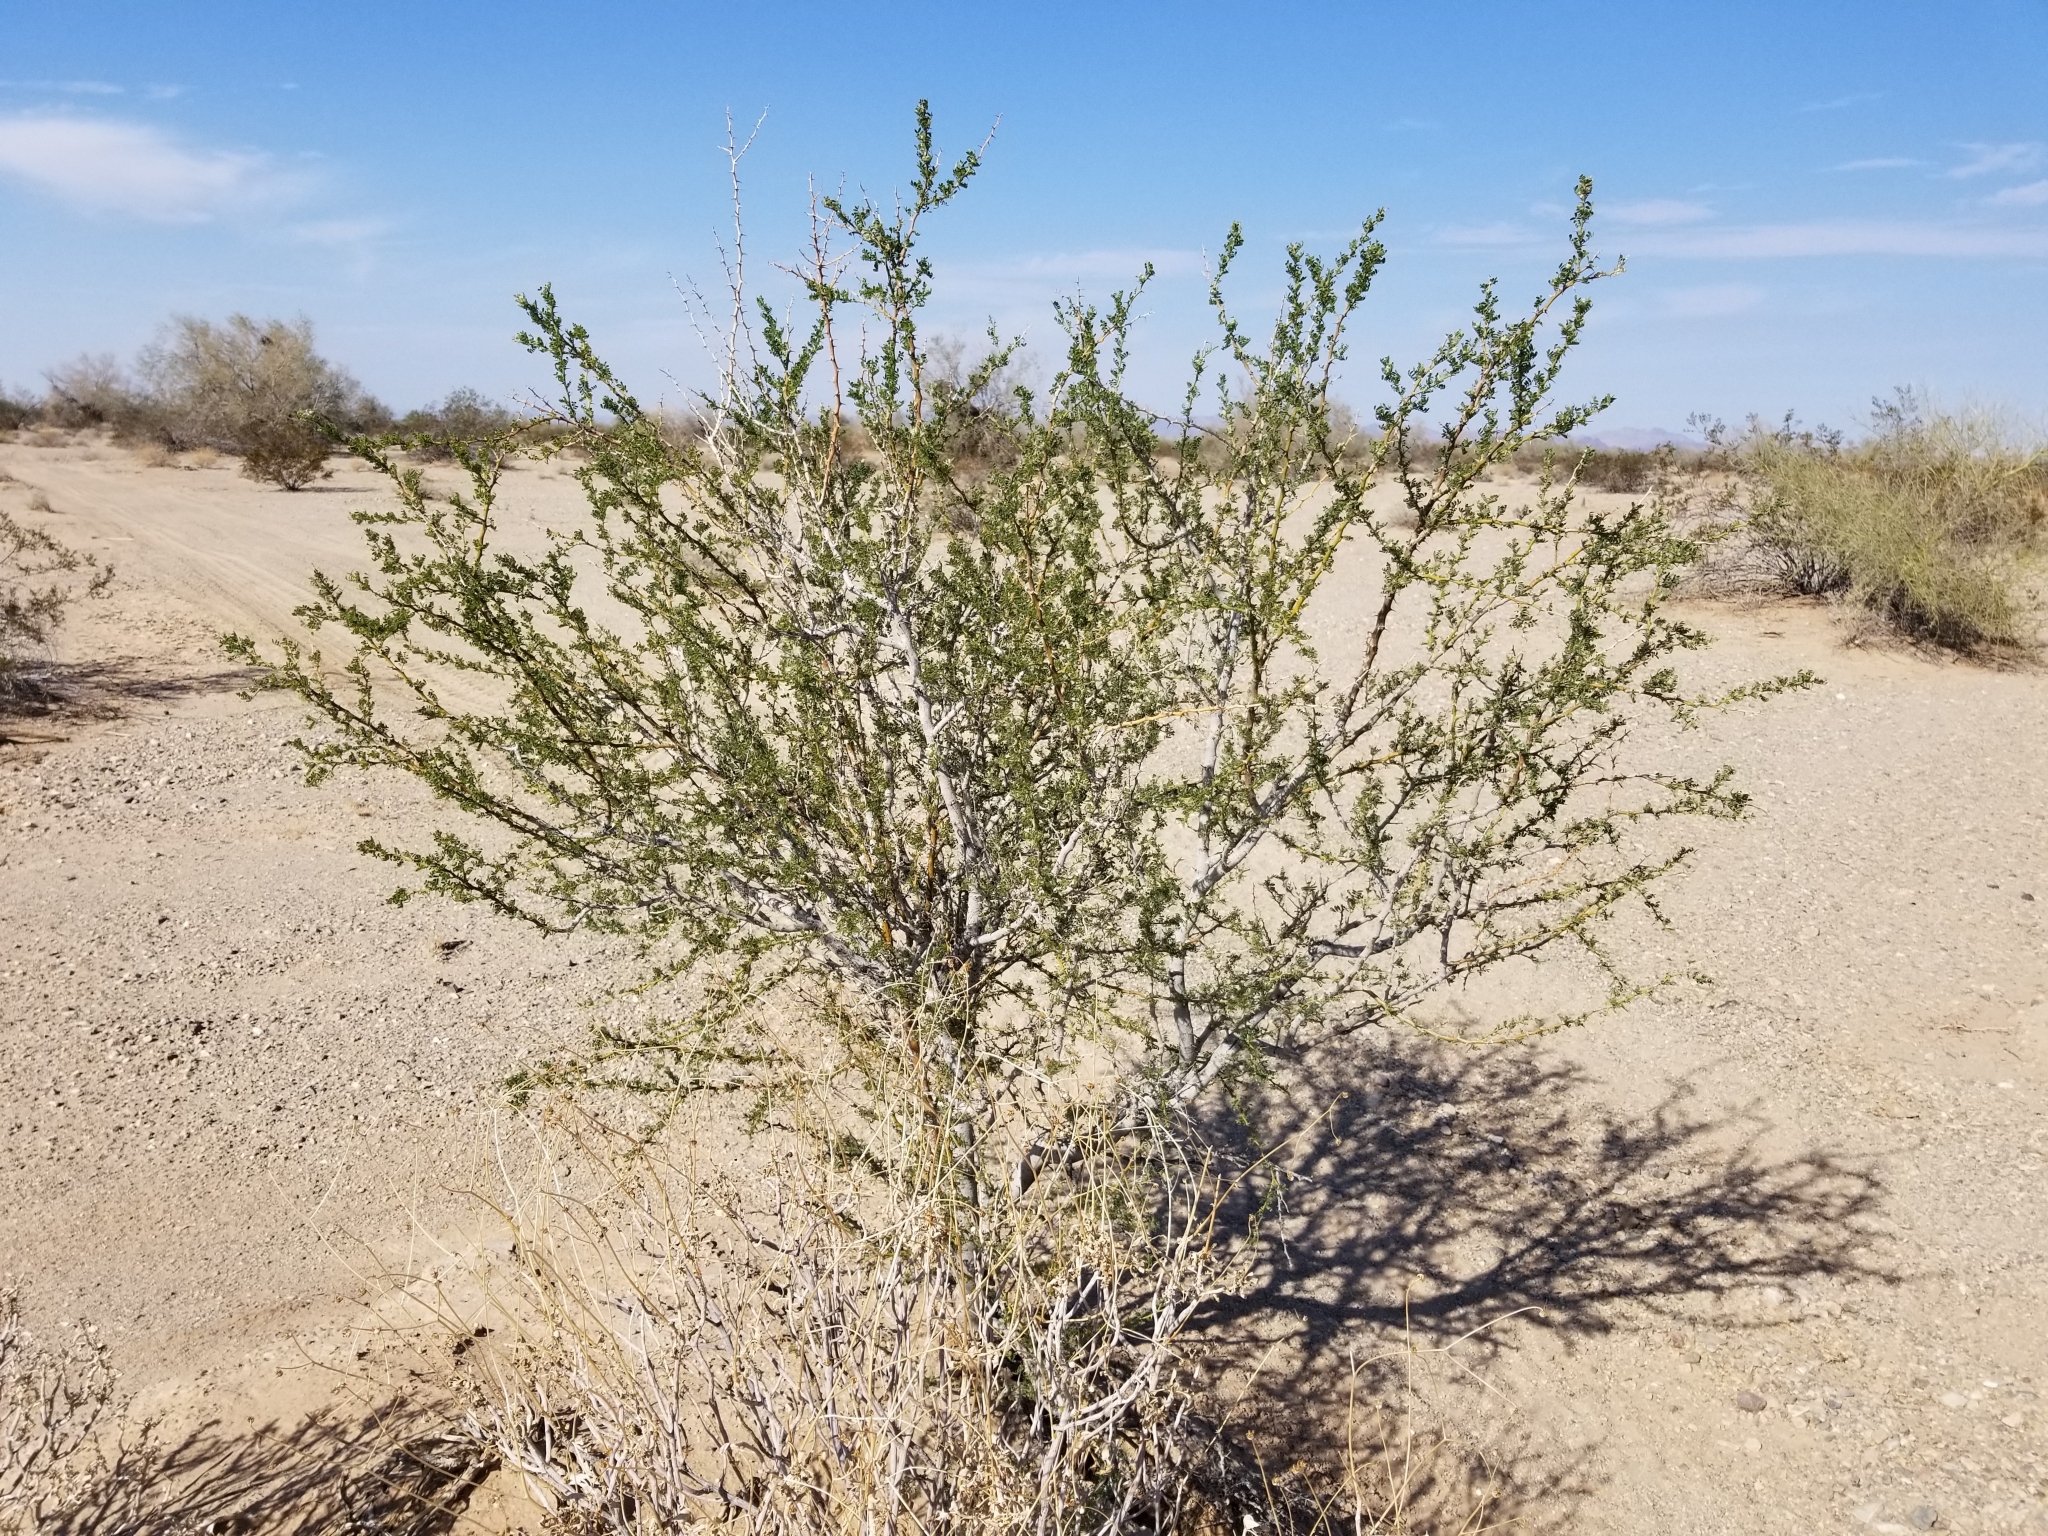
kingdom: Plantae
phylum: Tracheophyta
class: Magnoliopsida
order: Fabales
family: Fabaceae
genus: Olneya
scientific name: Olneya tesota
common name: Desert ironwood
